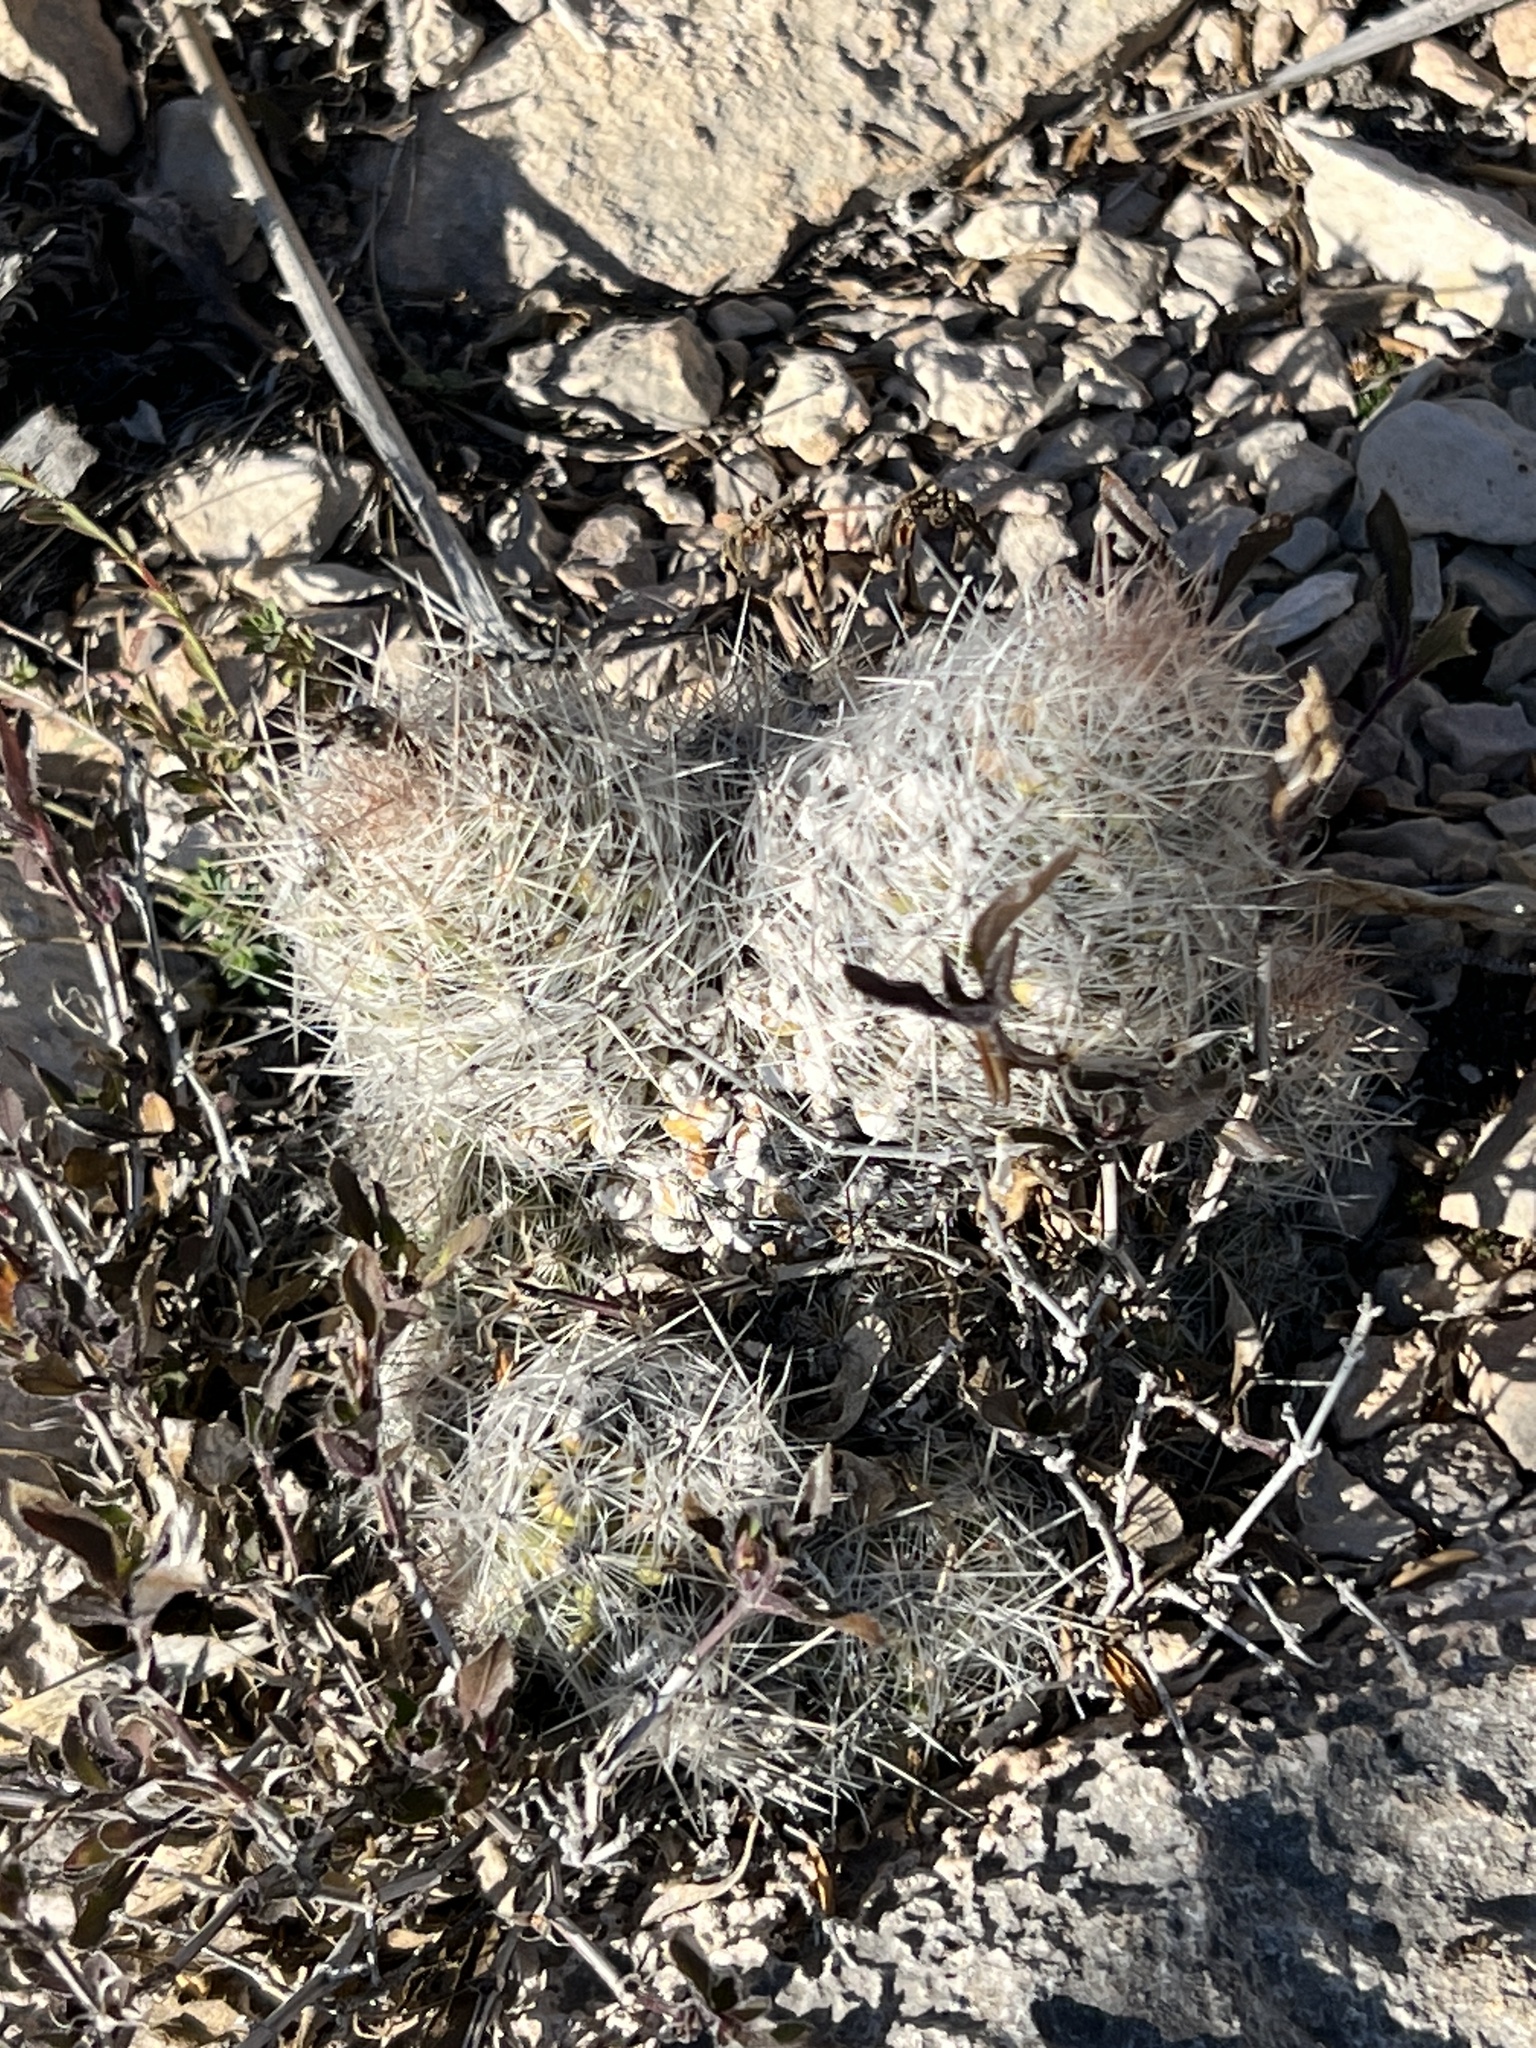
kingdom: Plantae
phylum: Tracheophyta
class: Magnoliopsida
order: Caryophyllales
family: Cactaceae
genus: Pelecyphora
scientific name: Pelecyphora tuberculosa
